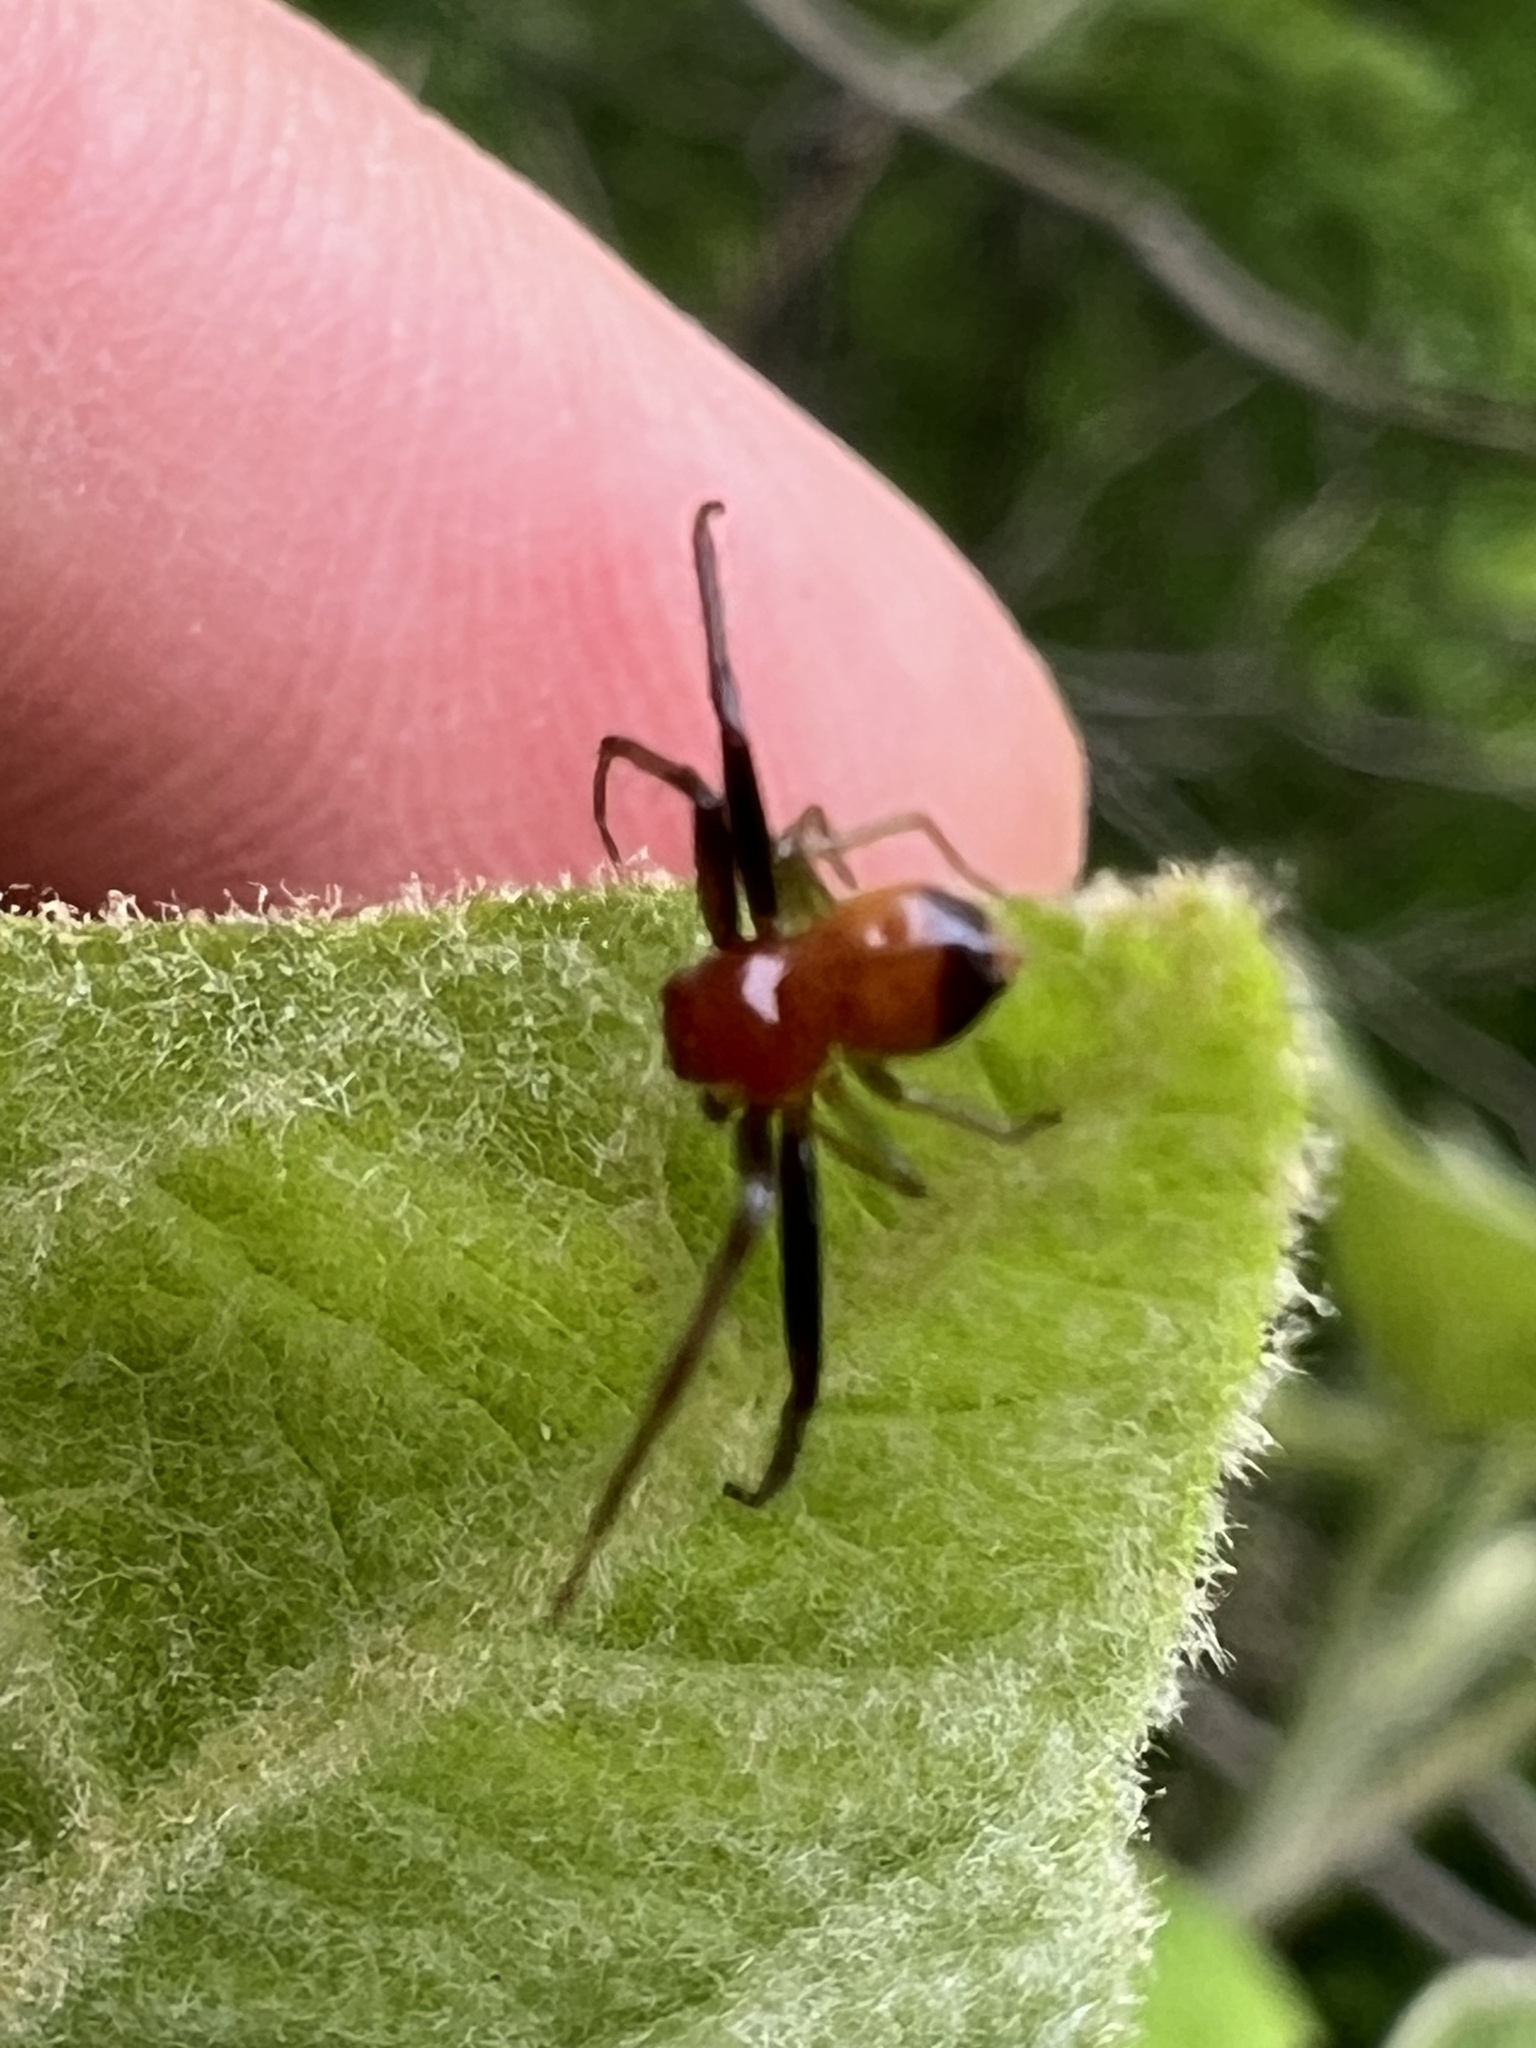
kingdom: Animalia
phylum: Arthropoda
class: Arachnida
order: Araneae
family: Thomisidae
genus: Synema
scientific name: Synema parvulum
